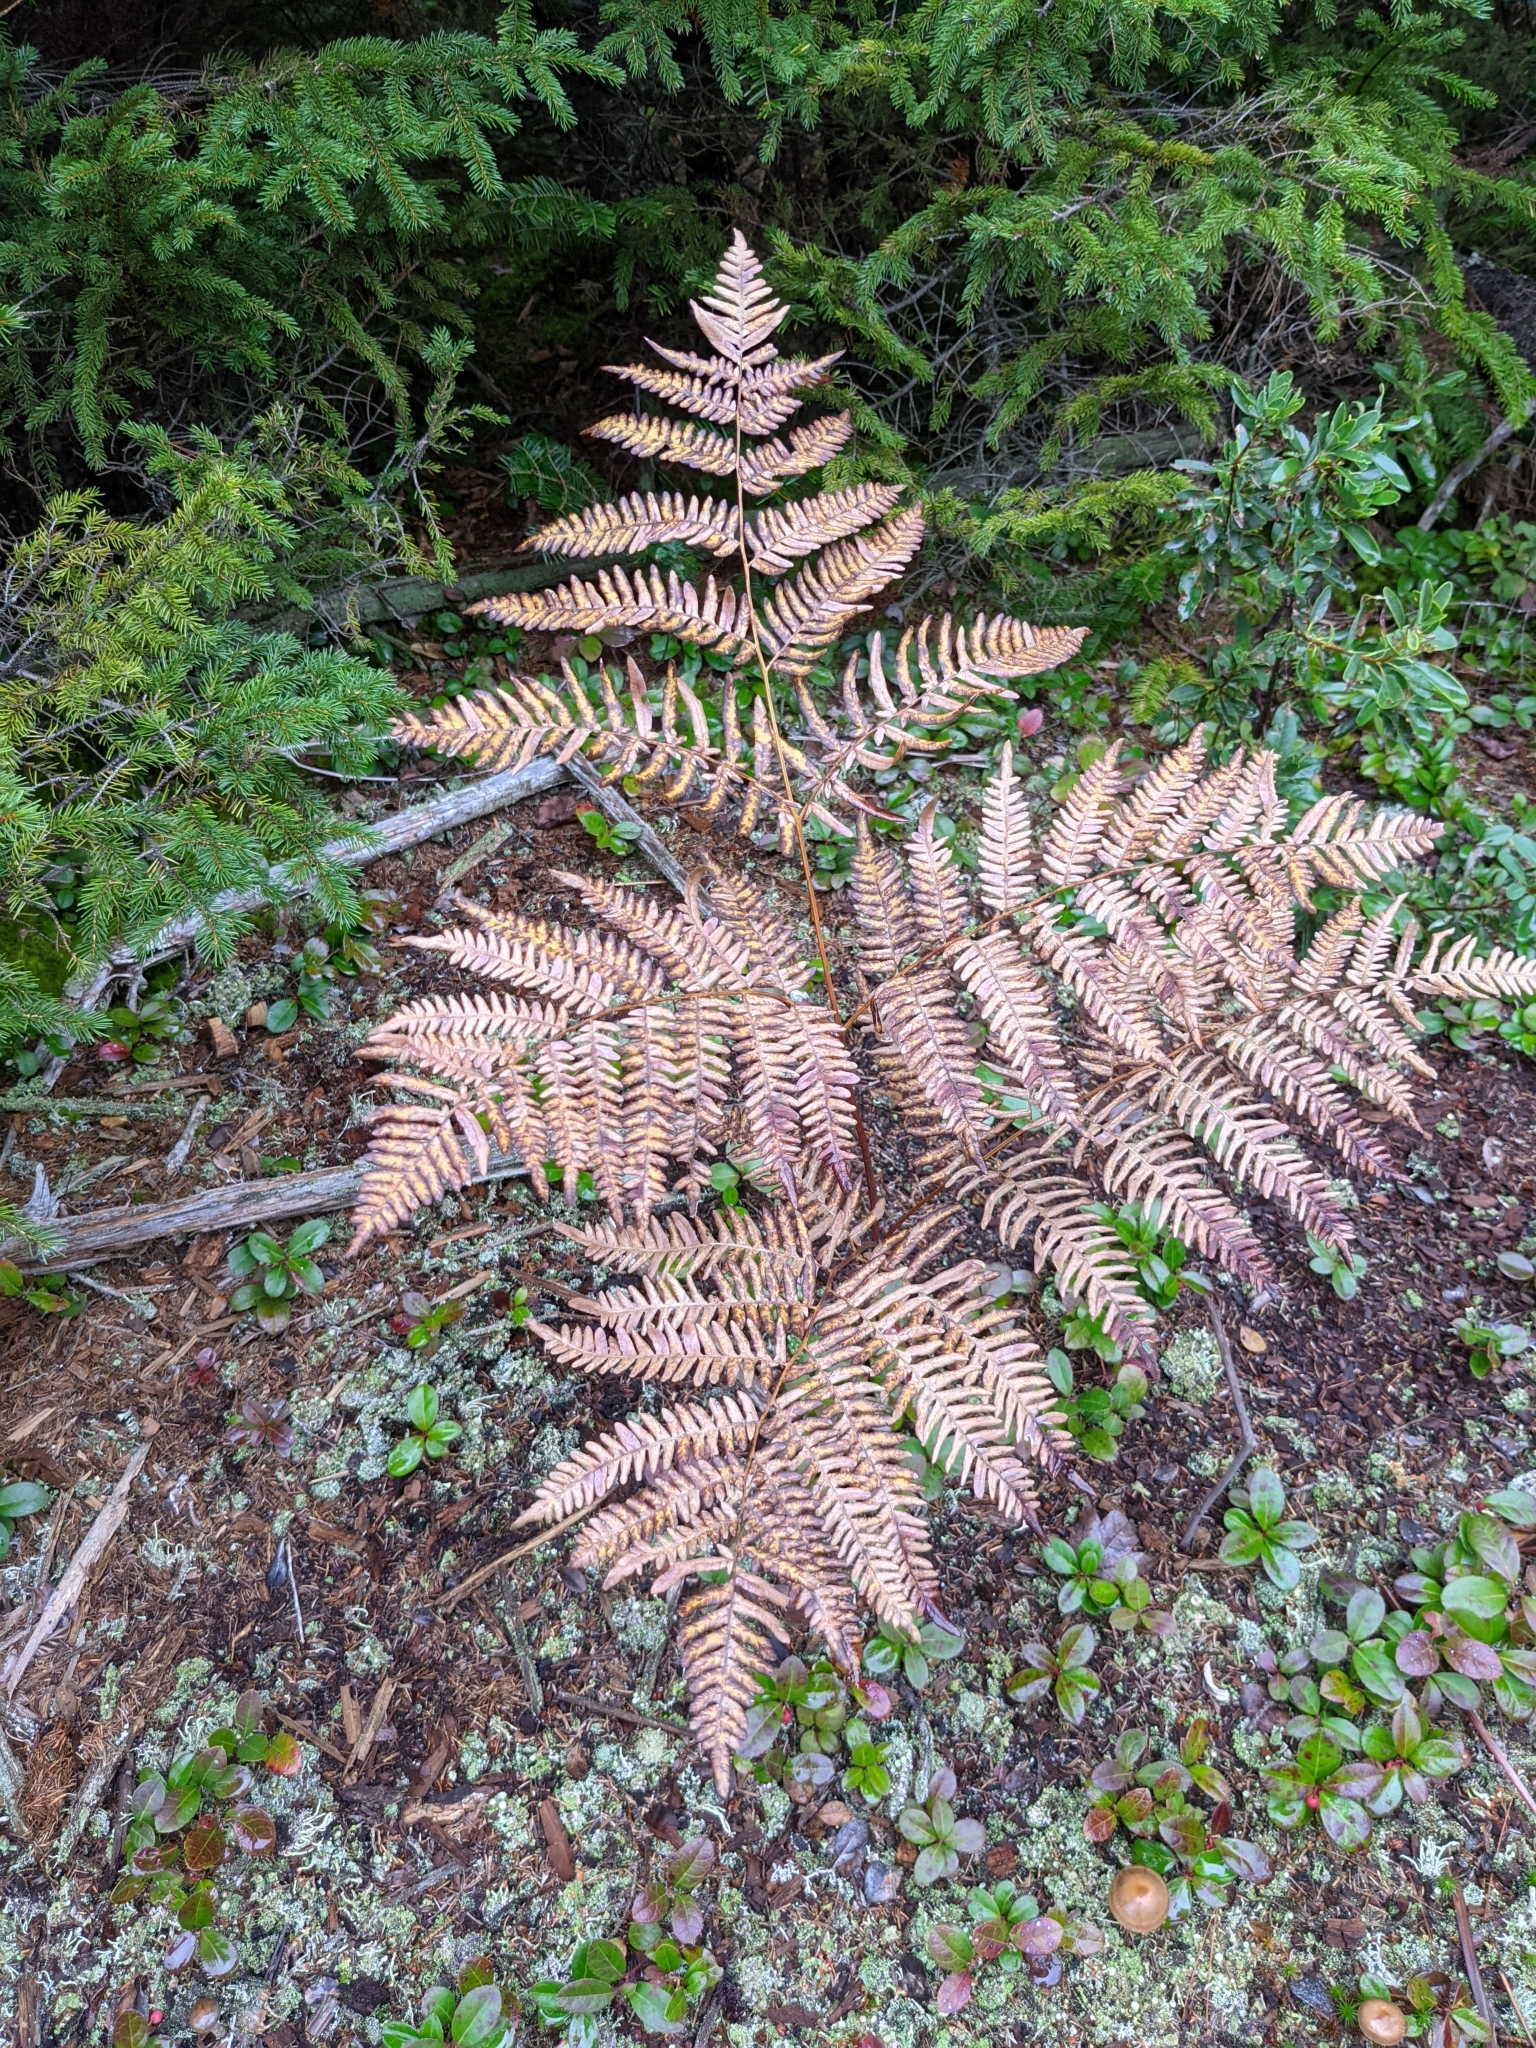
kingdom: Plantae
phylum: Tracheophyta
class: Polypodiopsida
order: Polypodiales
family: Dennstaedtiaceae
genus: Pteridium
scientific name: Pteridium aquilinum
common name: Bracken
